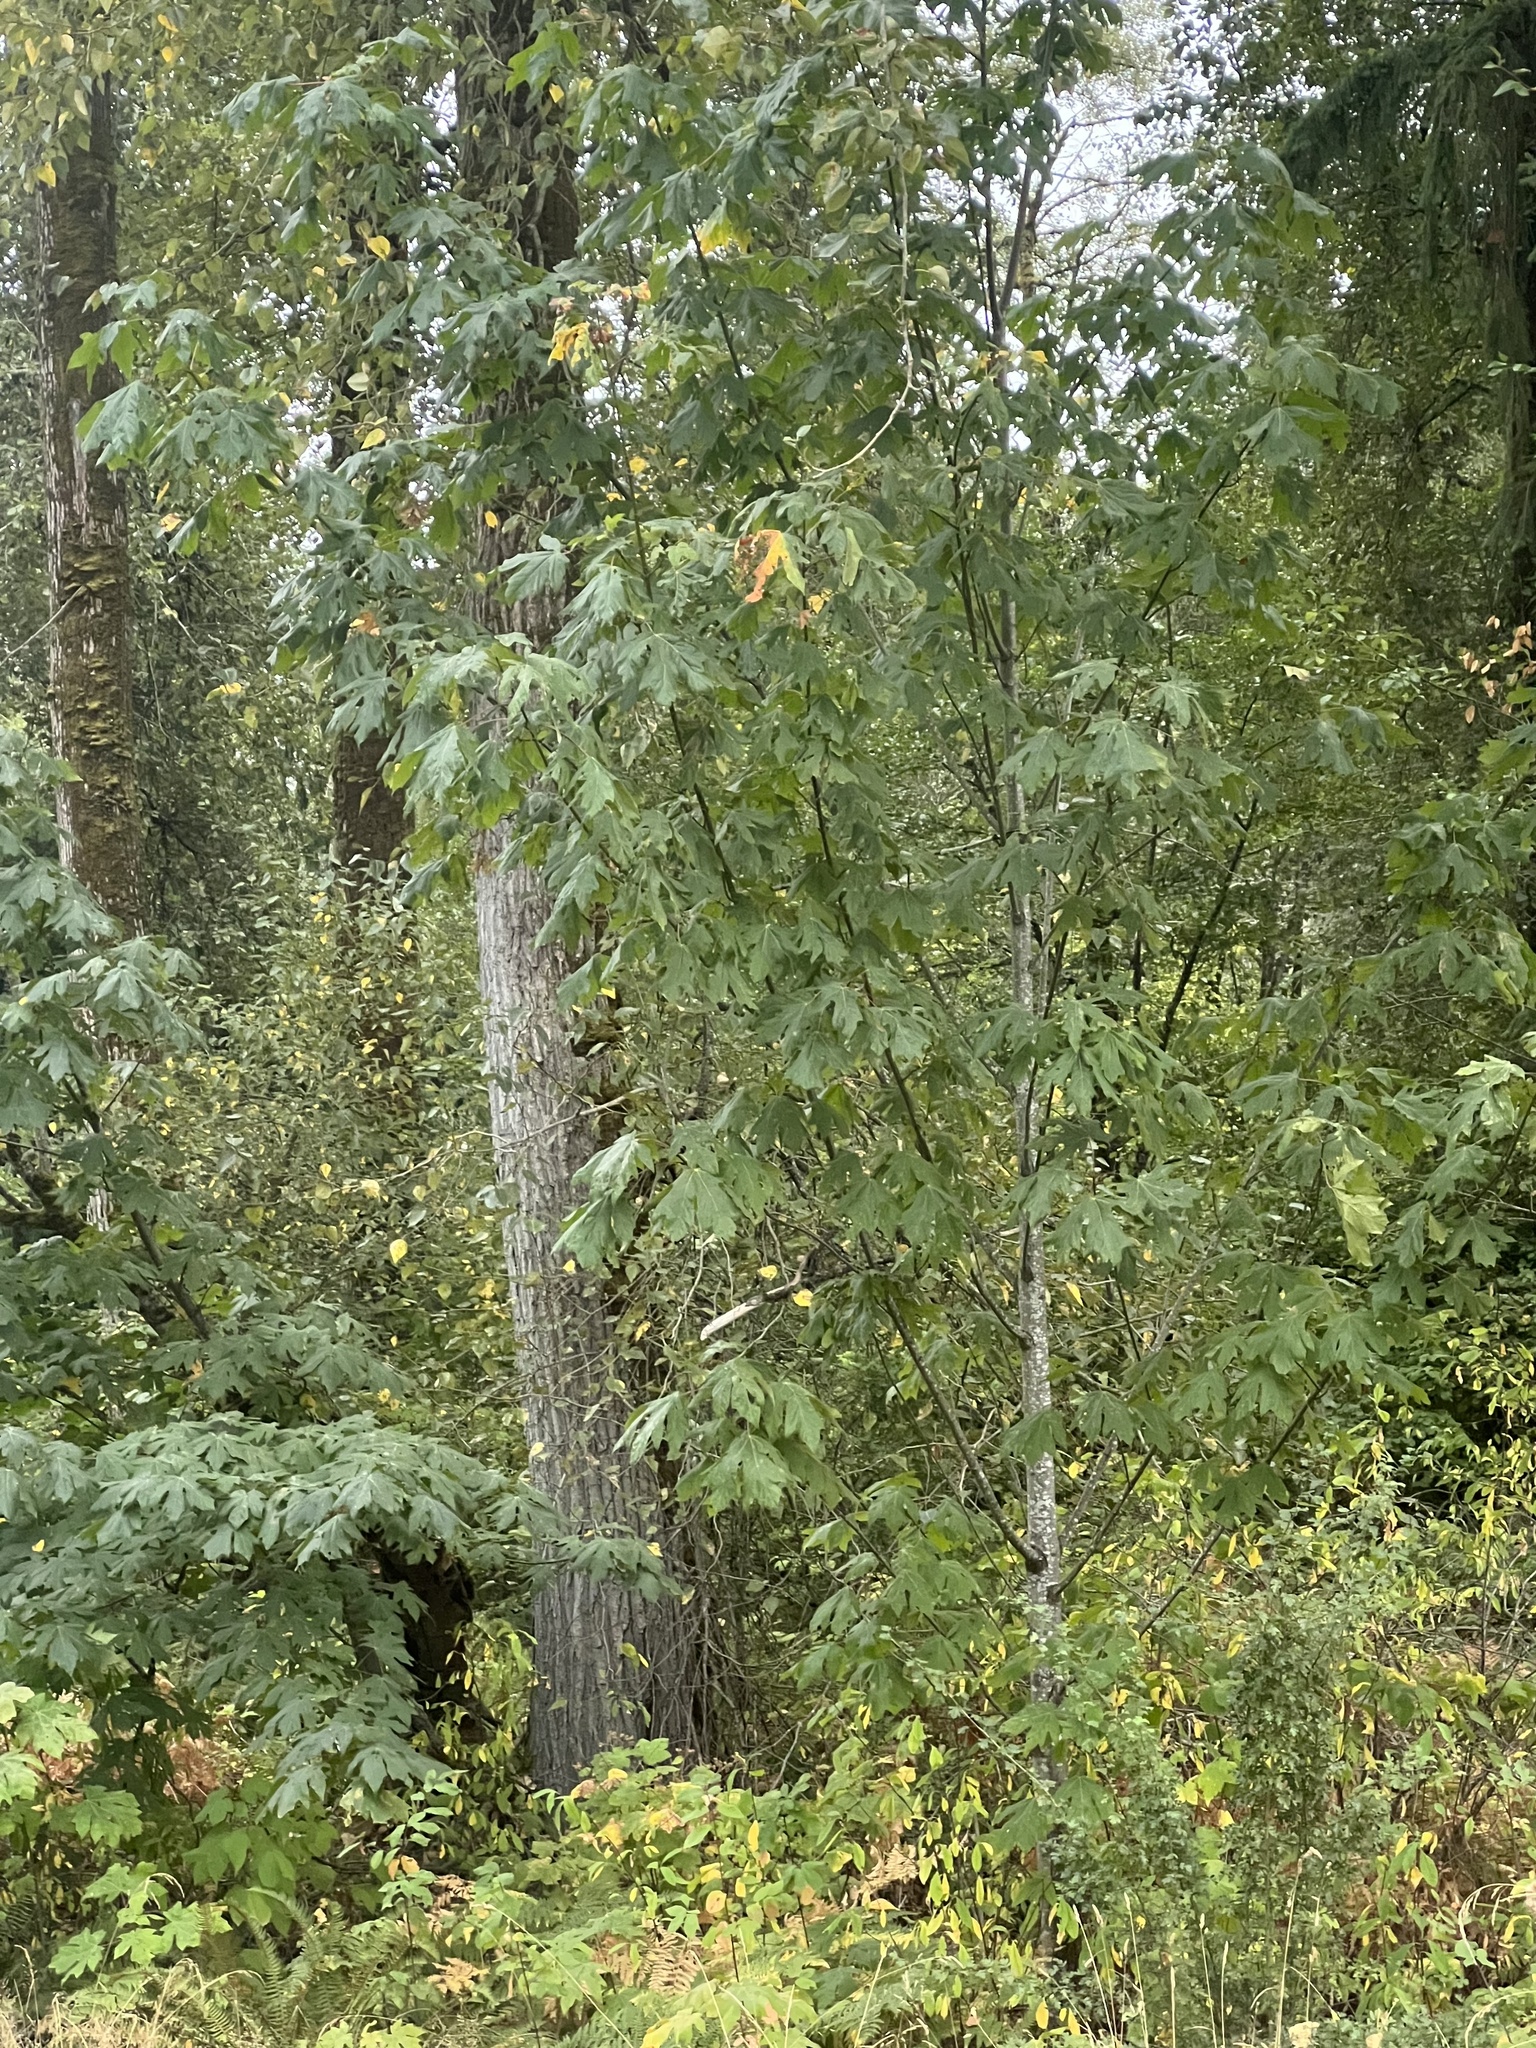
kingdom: Plantae
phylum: Tracheophyta
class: Magnoliopsida
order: Sapindales
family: Sapindaceae
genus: Acer
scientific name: Acer macrophyllum
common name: Oregon maple
